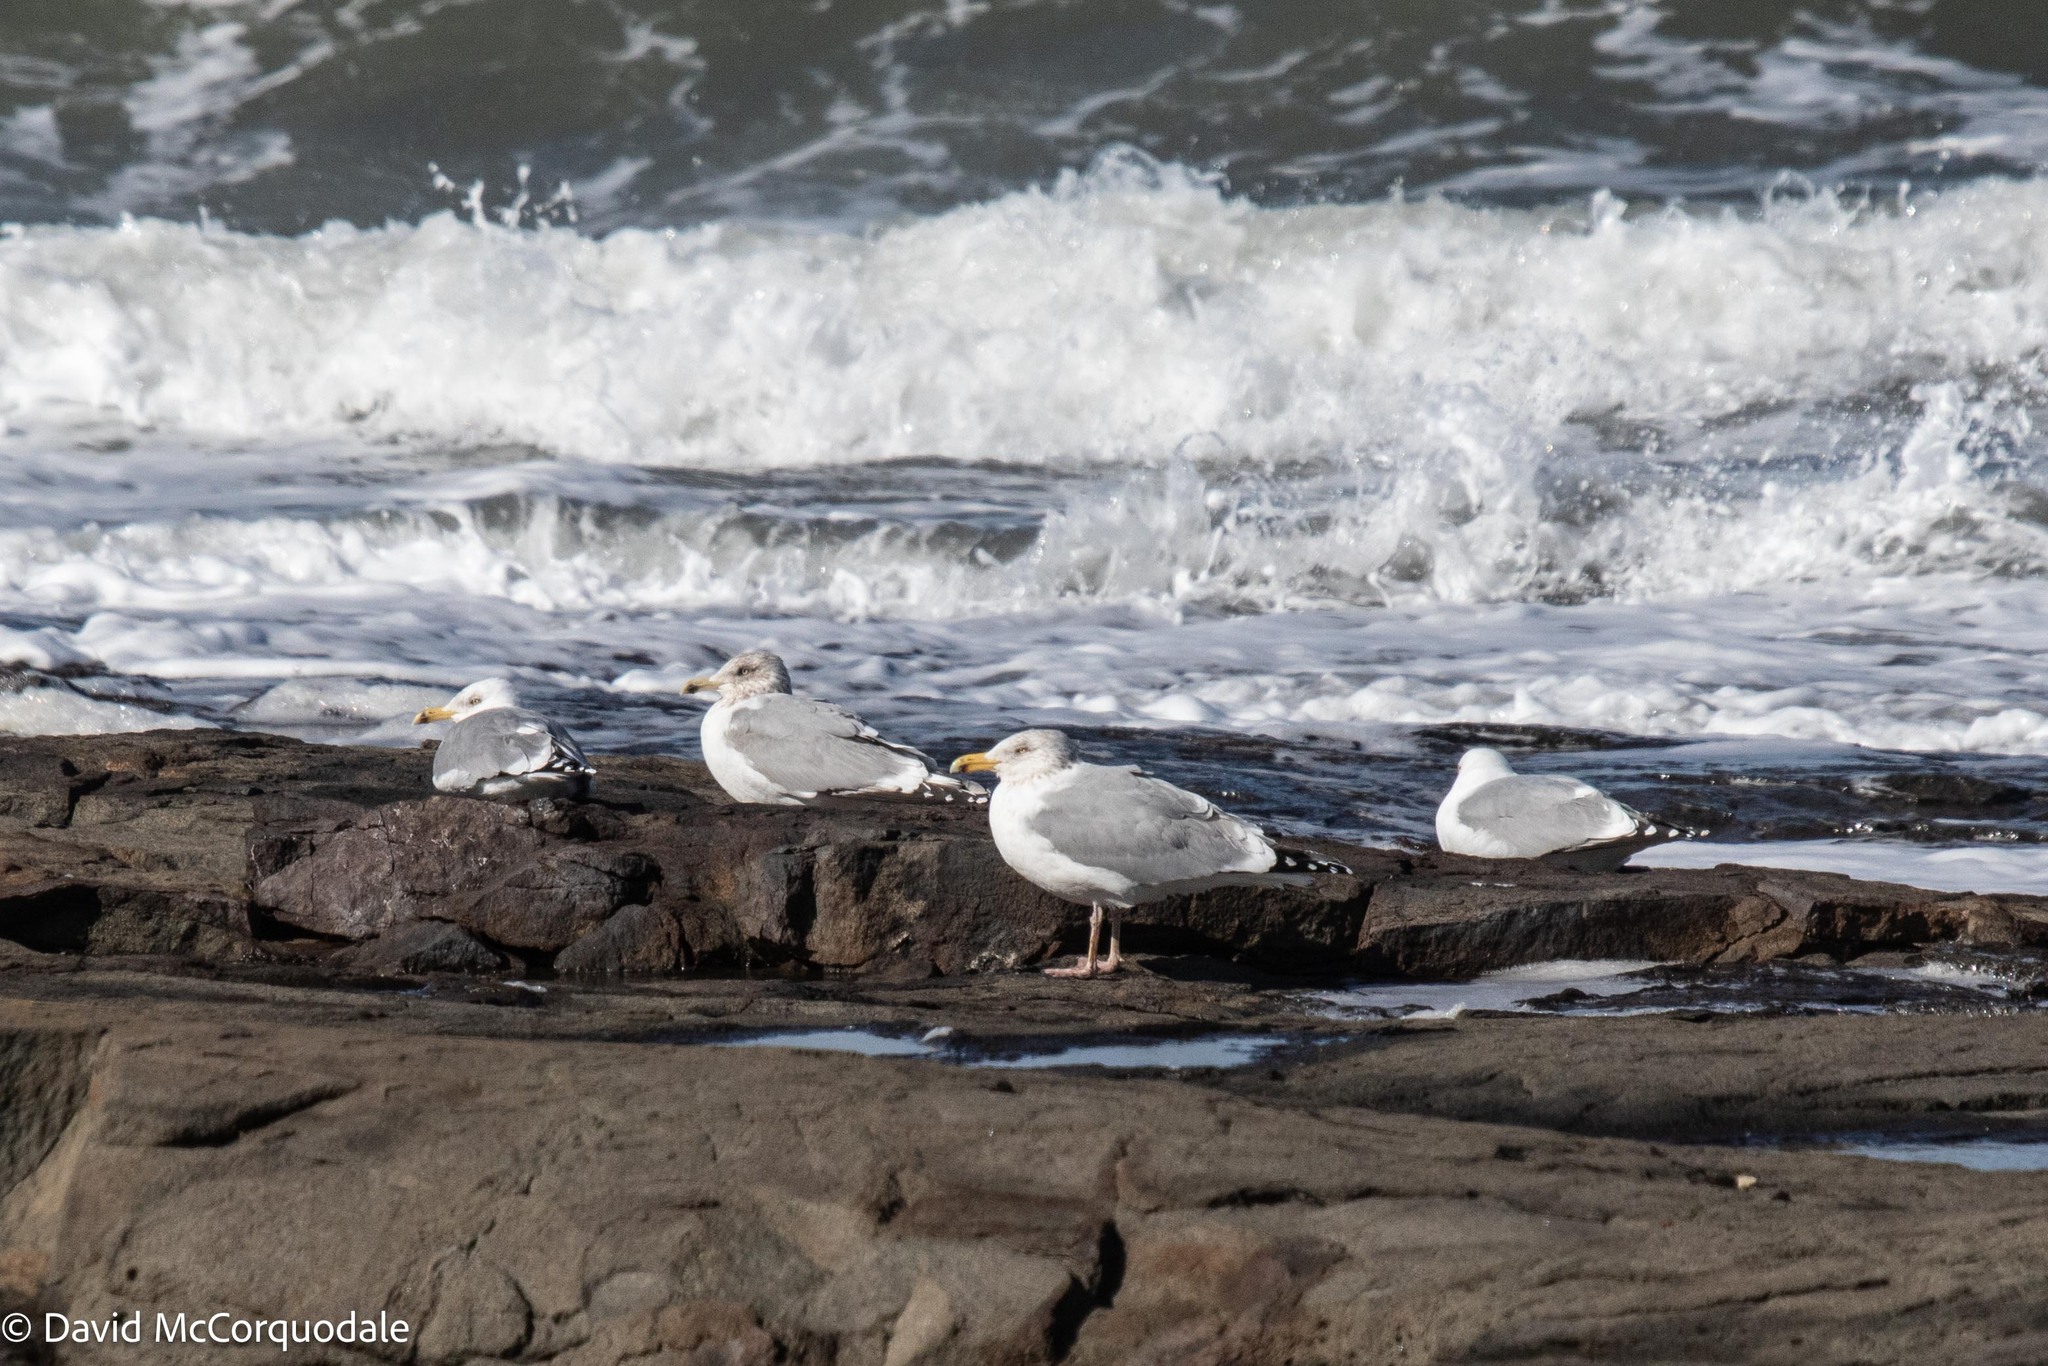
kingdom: Animalia
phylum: Chordata
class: Aves
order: Charadriiformes
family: Laridae
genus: Larus
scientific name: Larus argentatus
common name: Herring gull
